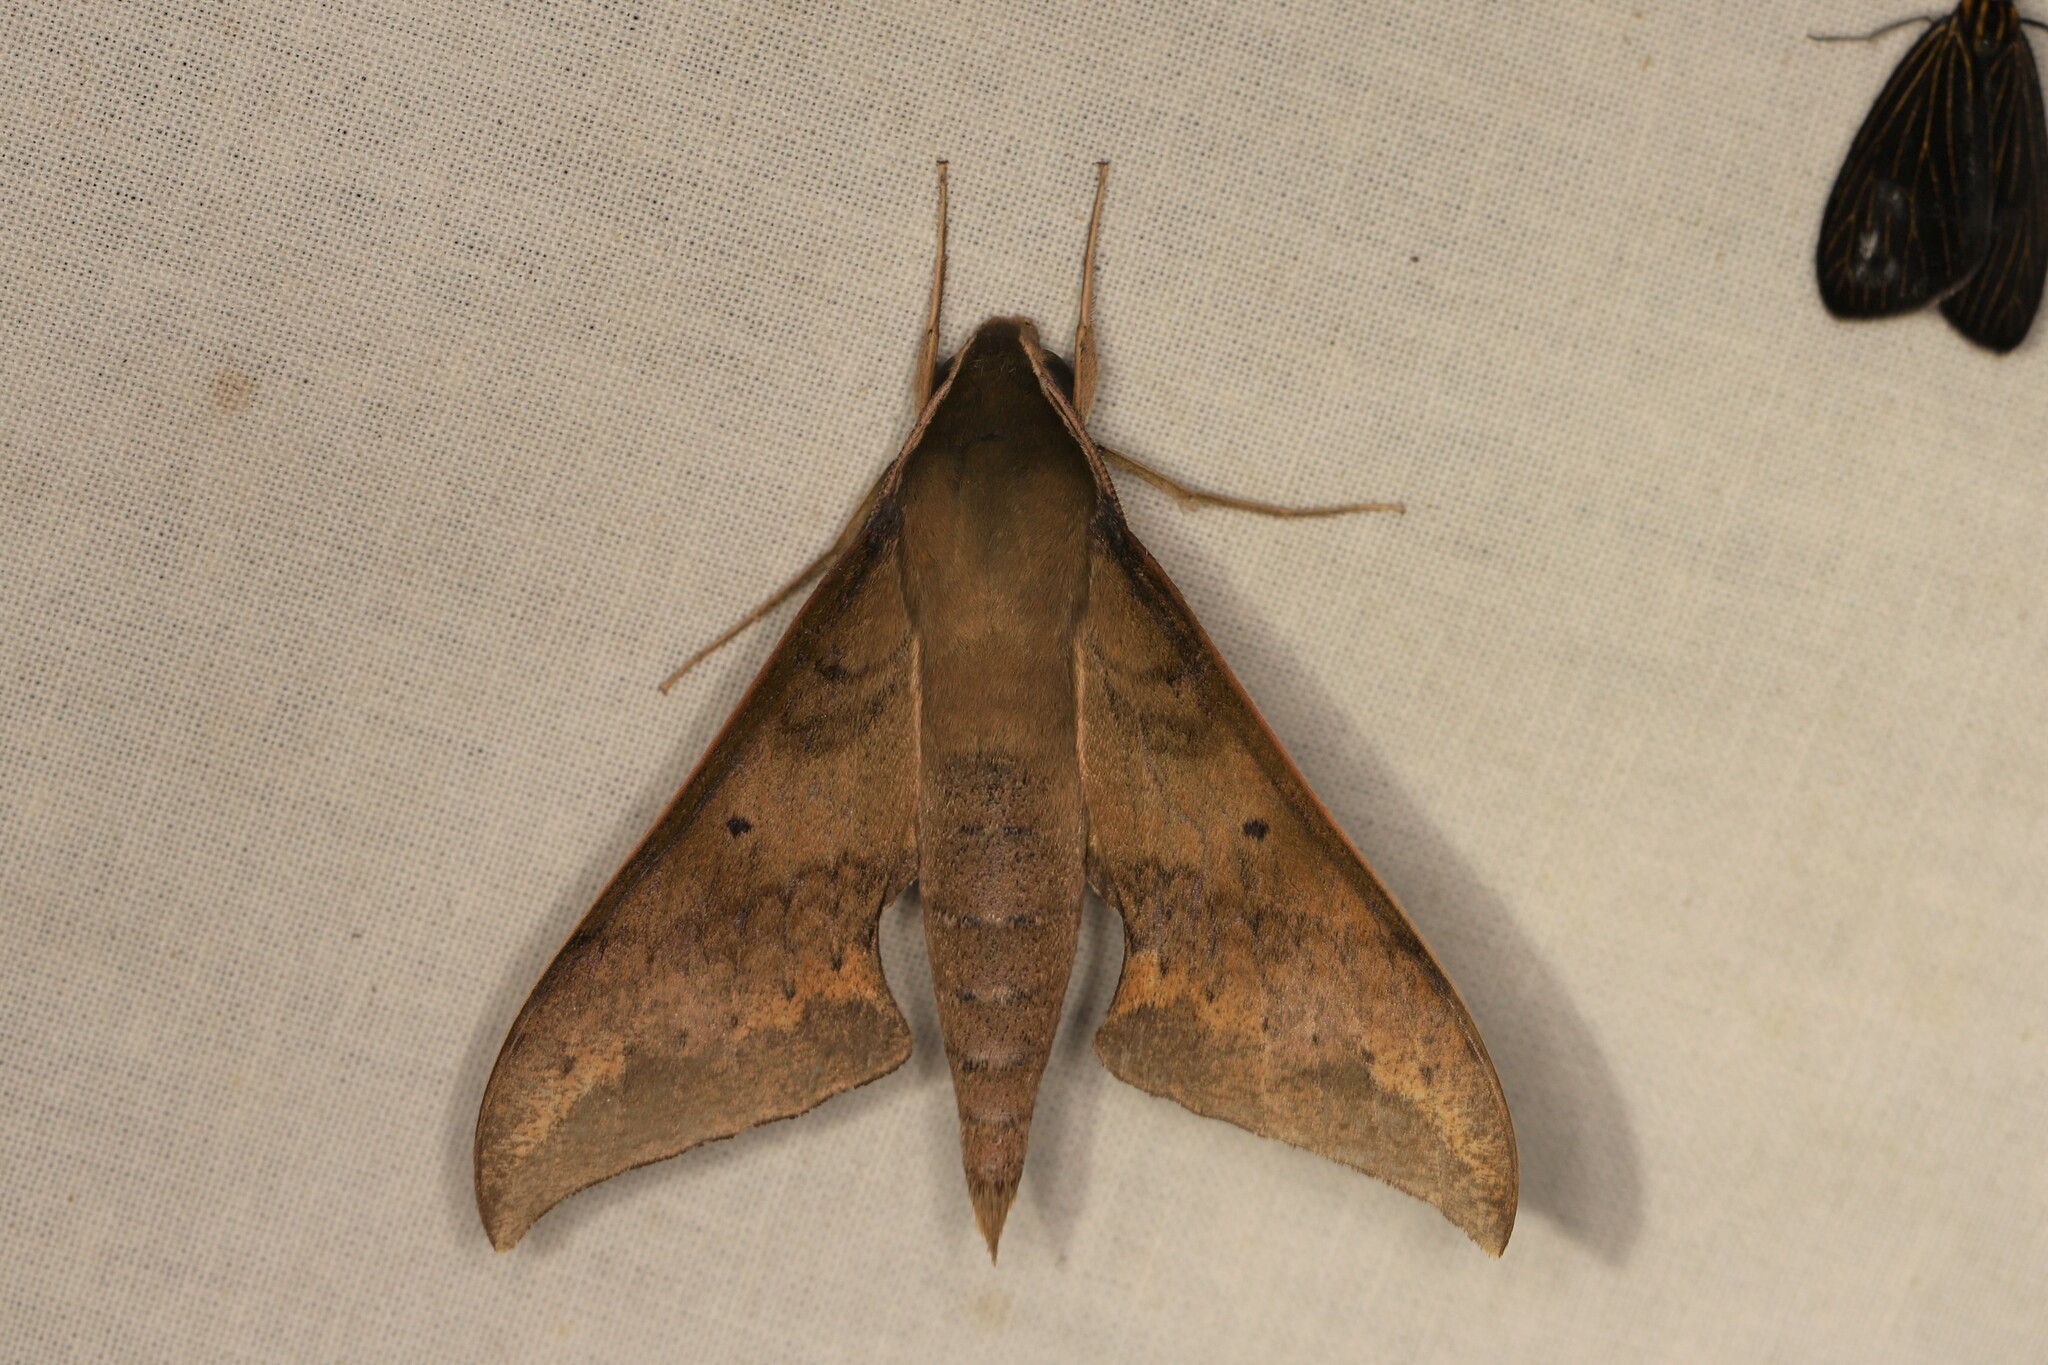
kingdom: Animalia
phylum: Arthropoda
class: Insecta
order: Lepidoptera
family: Sphingidae
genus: Xylophanes
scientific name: Xylophanes hannemanni
